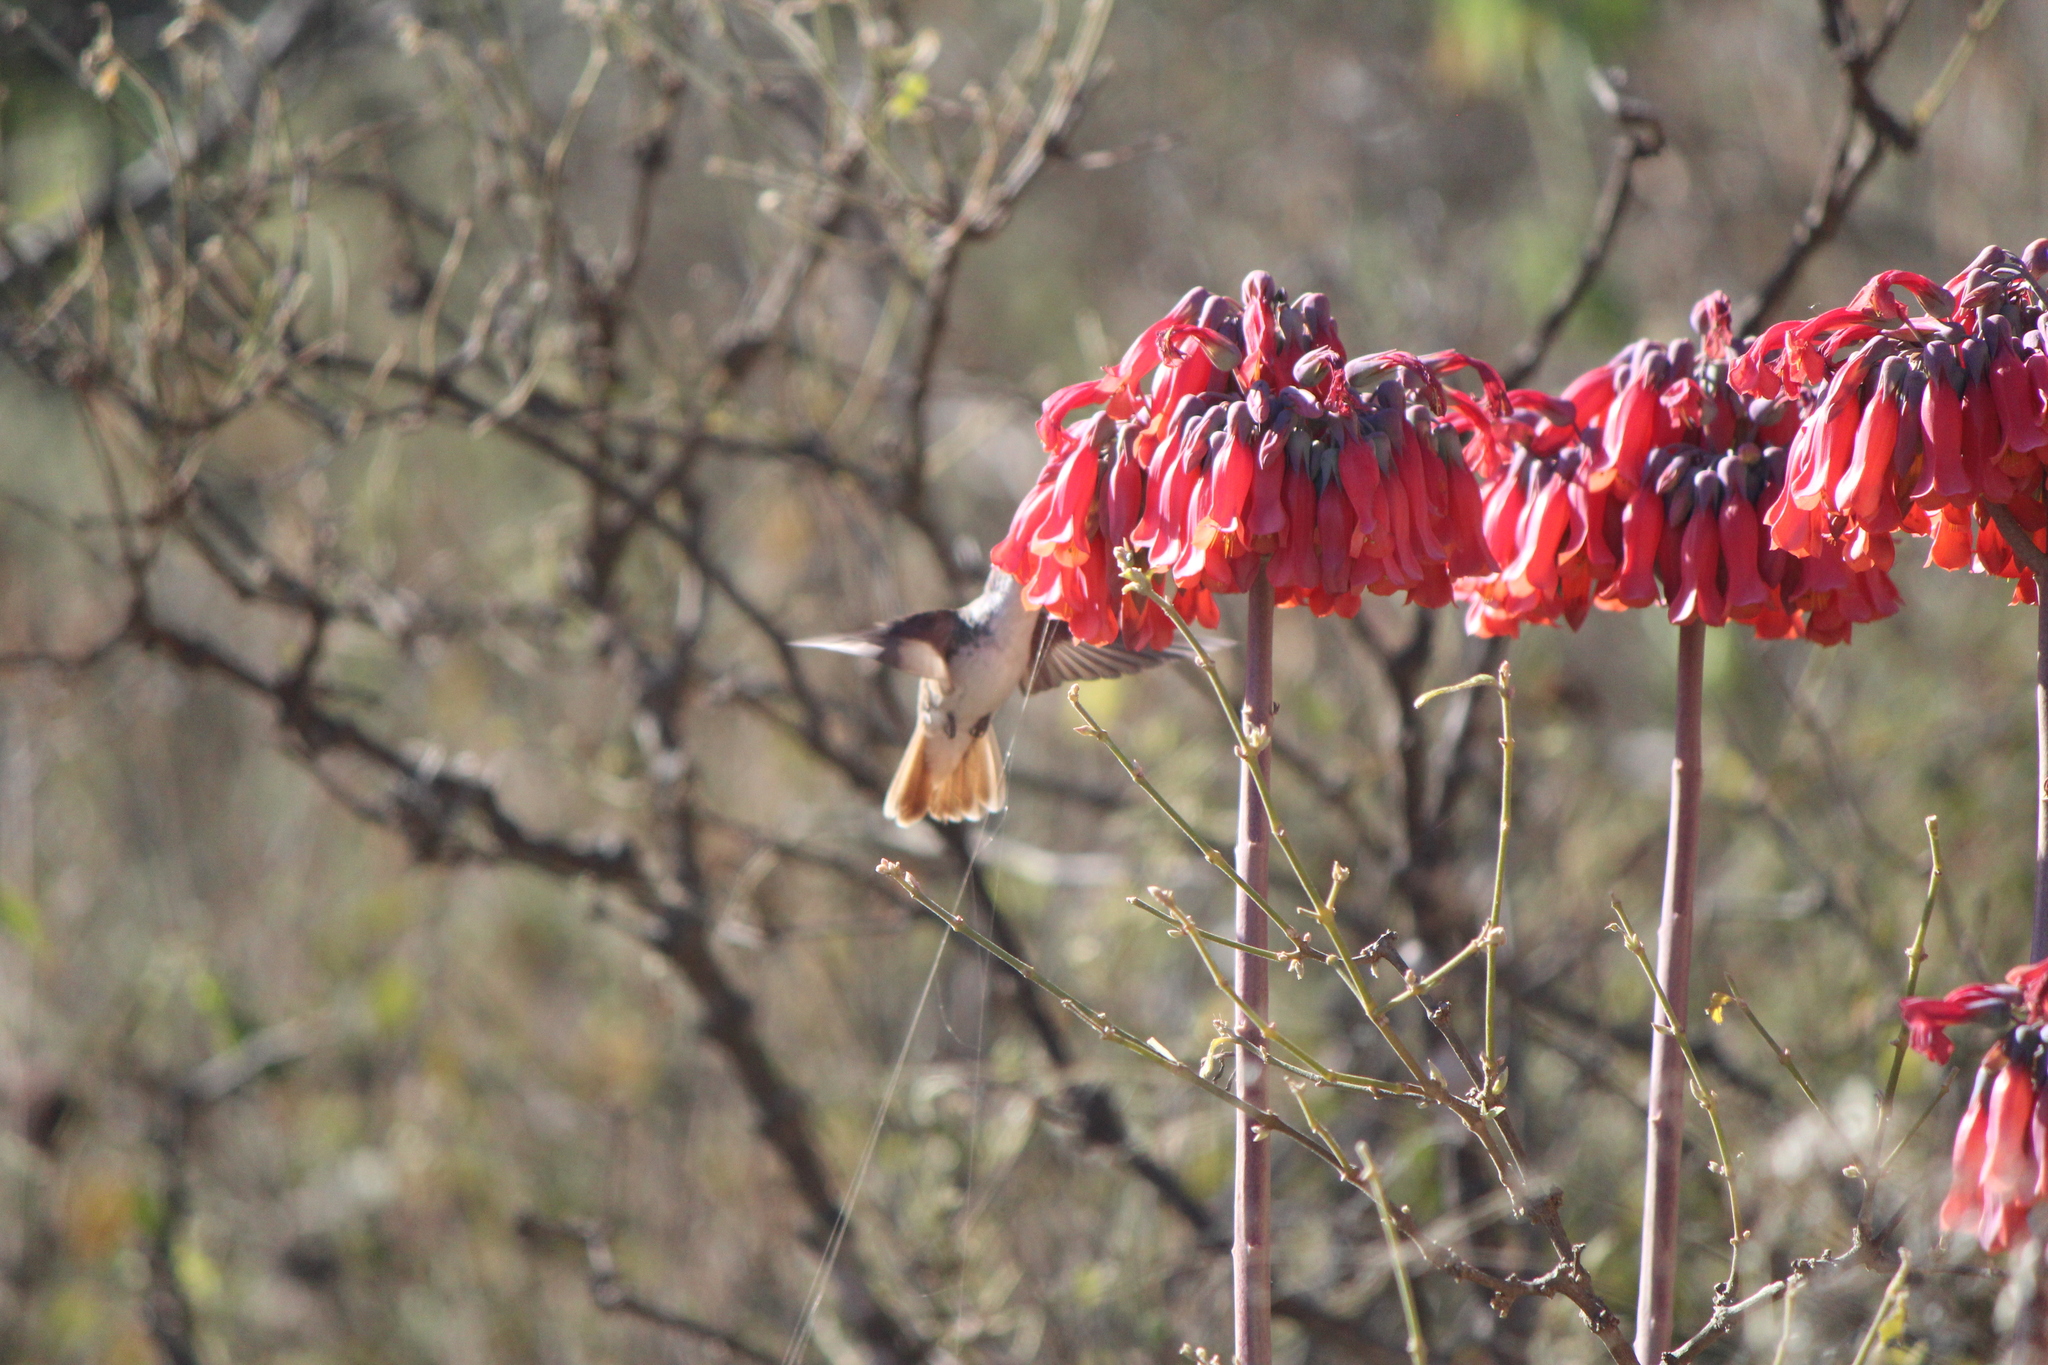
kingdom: Plantae
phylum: Tracheophyta
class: Magnoliopsida
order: Saxifragales
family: Crassulaceae
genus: Kalanchoe
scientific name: Kalanchoe delagoensis
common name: Chandelier plant
